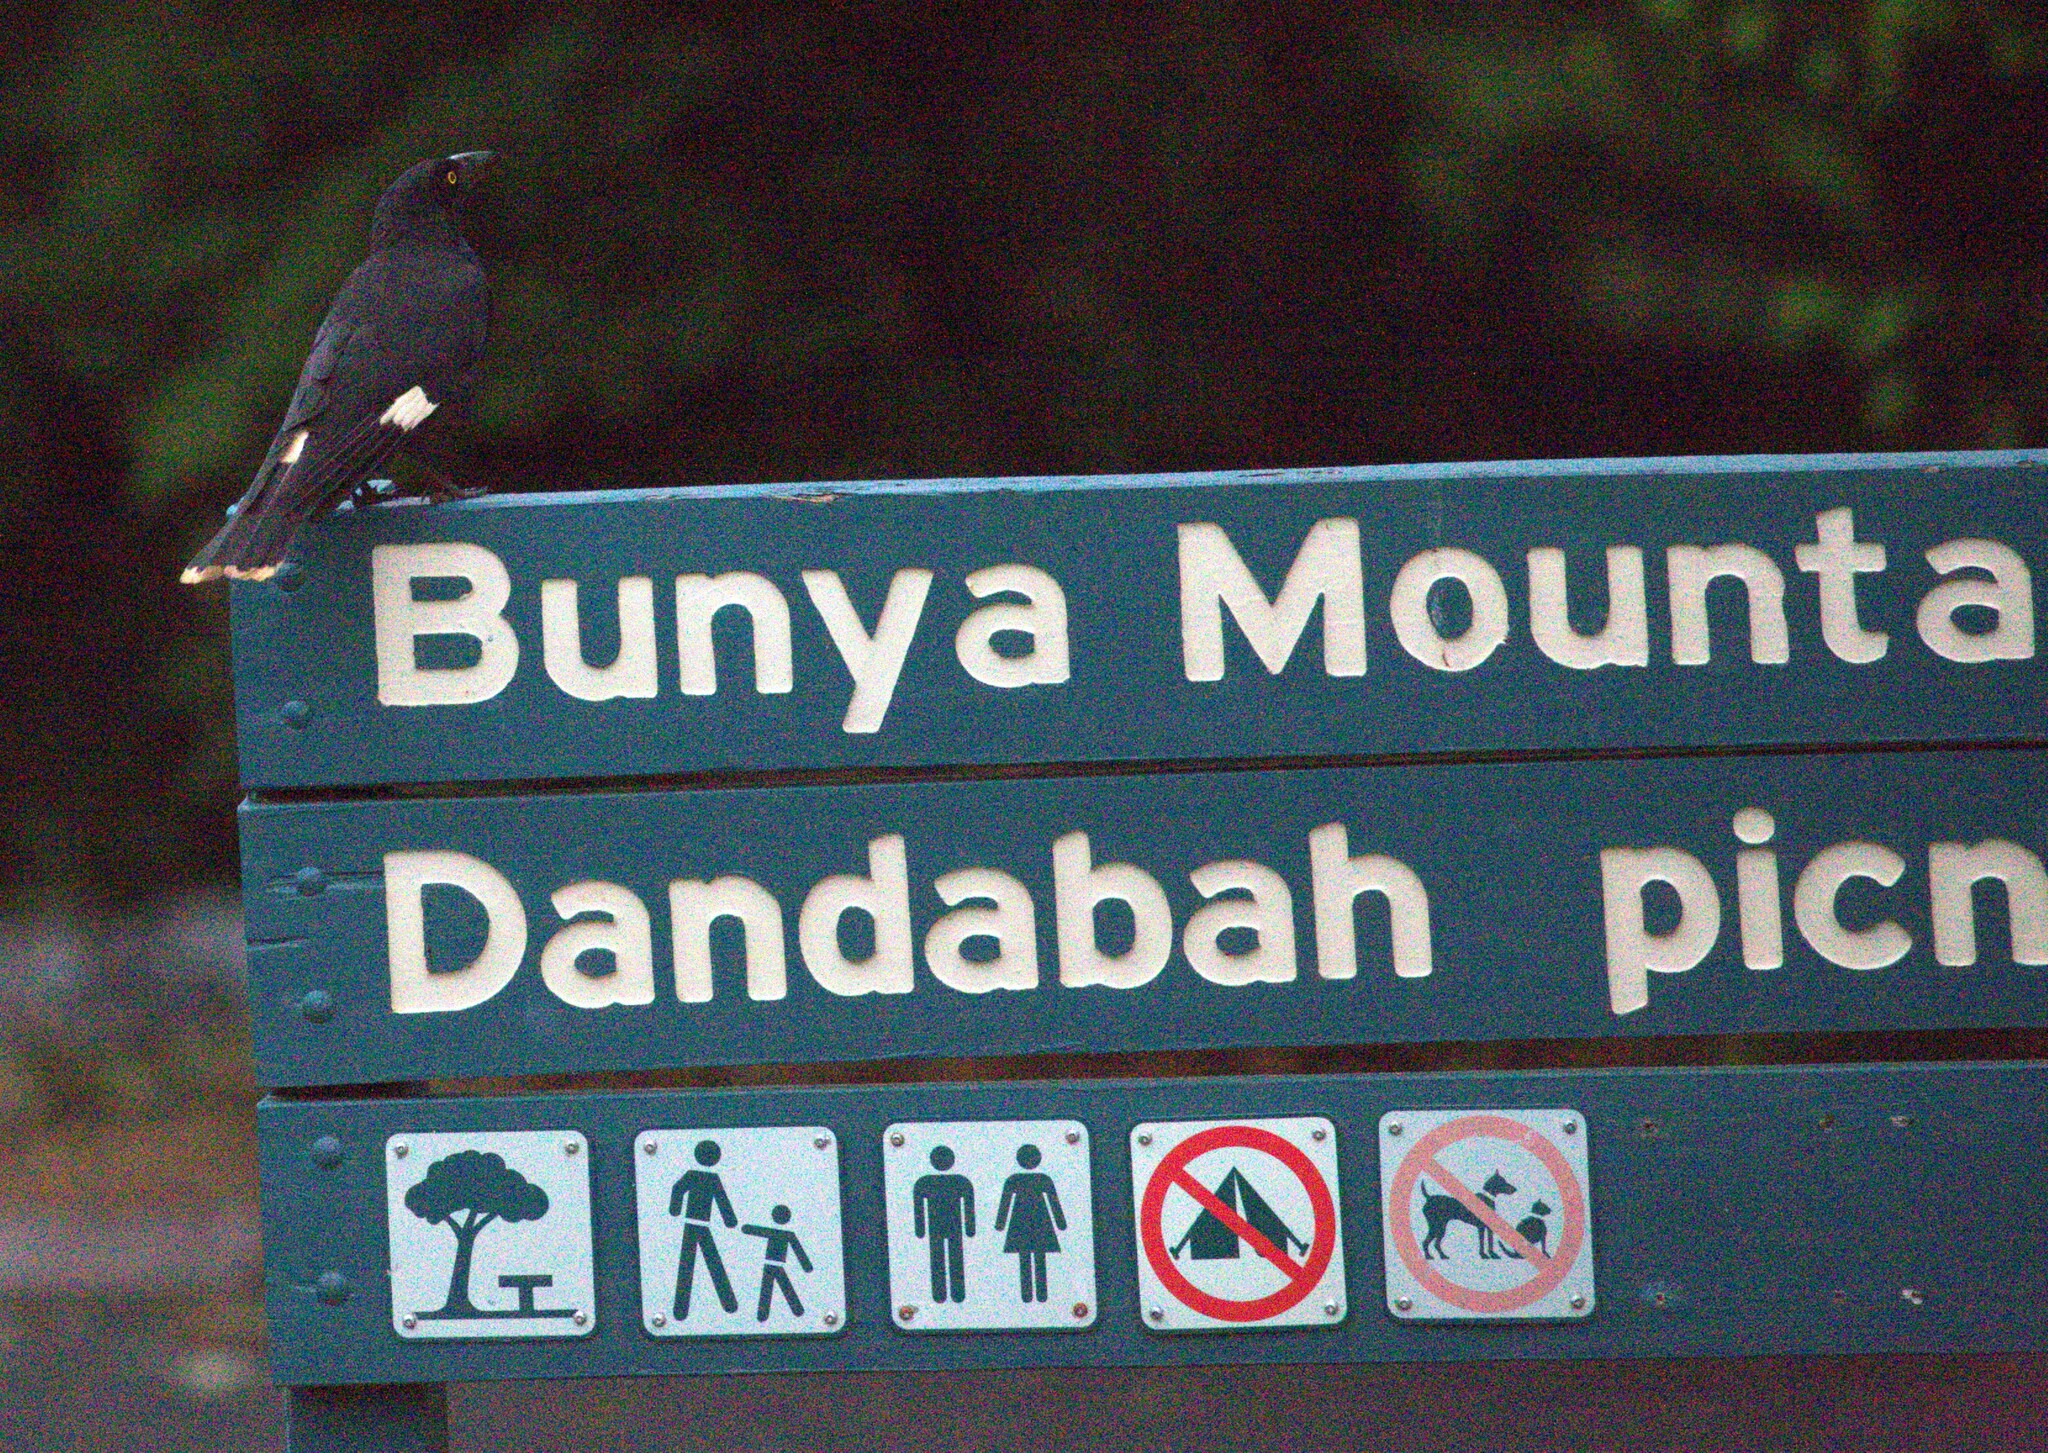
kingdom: Animalia
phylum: Chordata
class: Aves
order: Passeriformes
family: Cracticidae
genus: Strepera
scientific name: Strepera graculina
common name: Pied currawong
